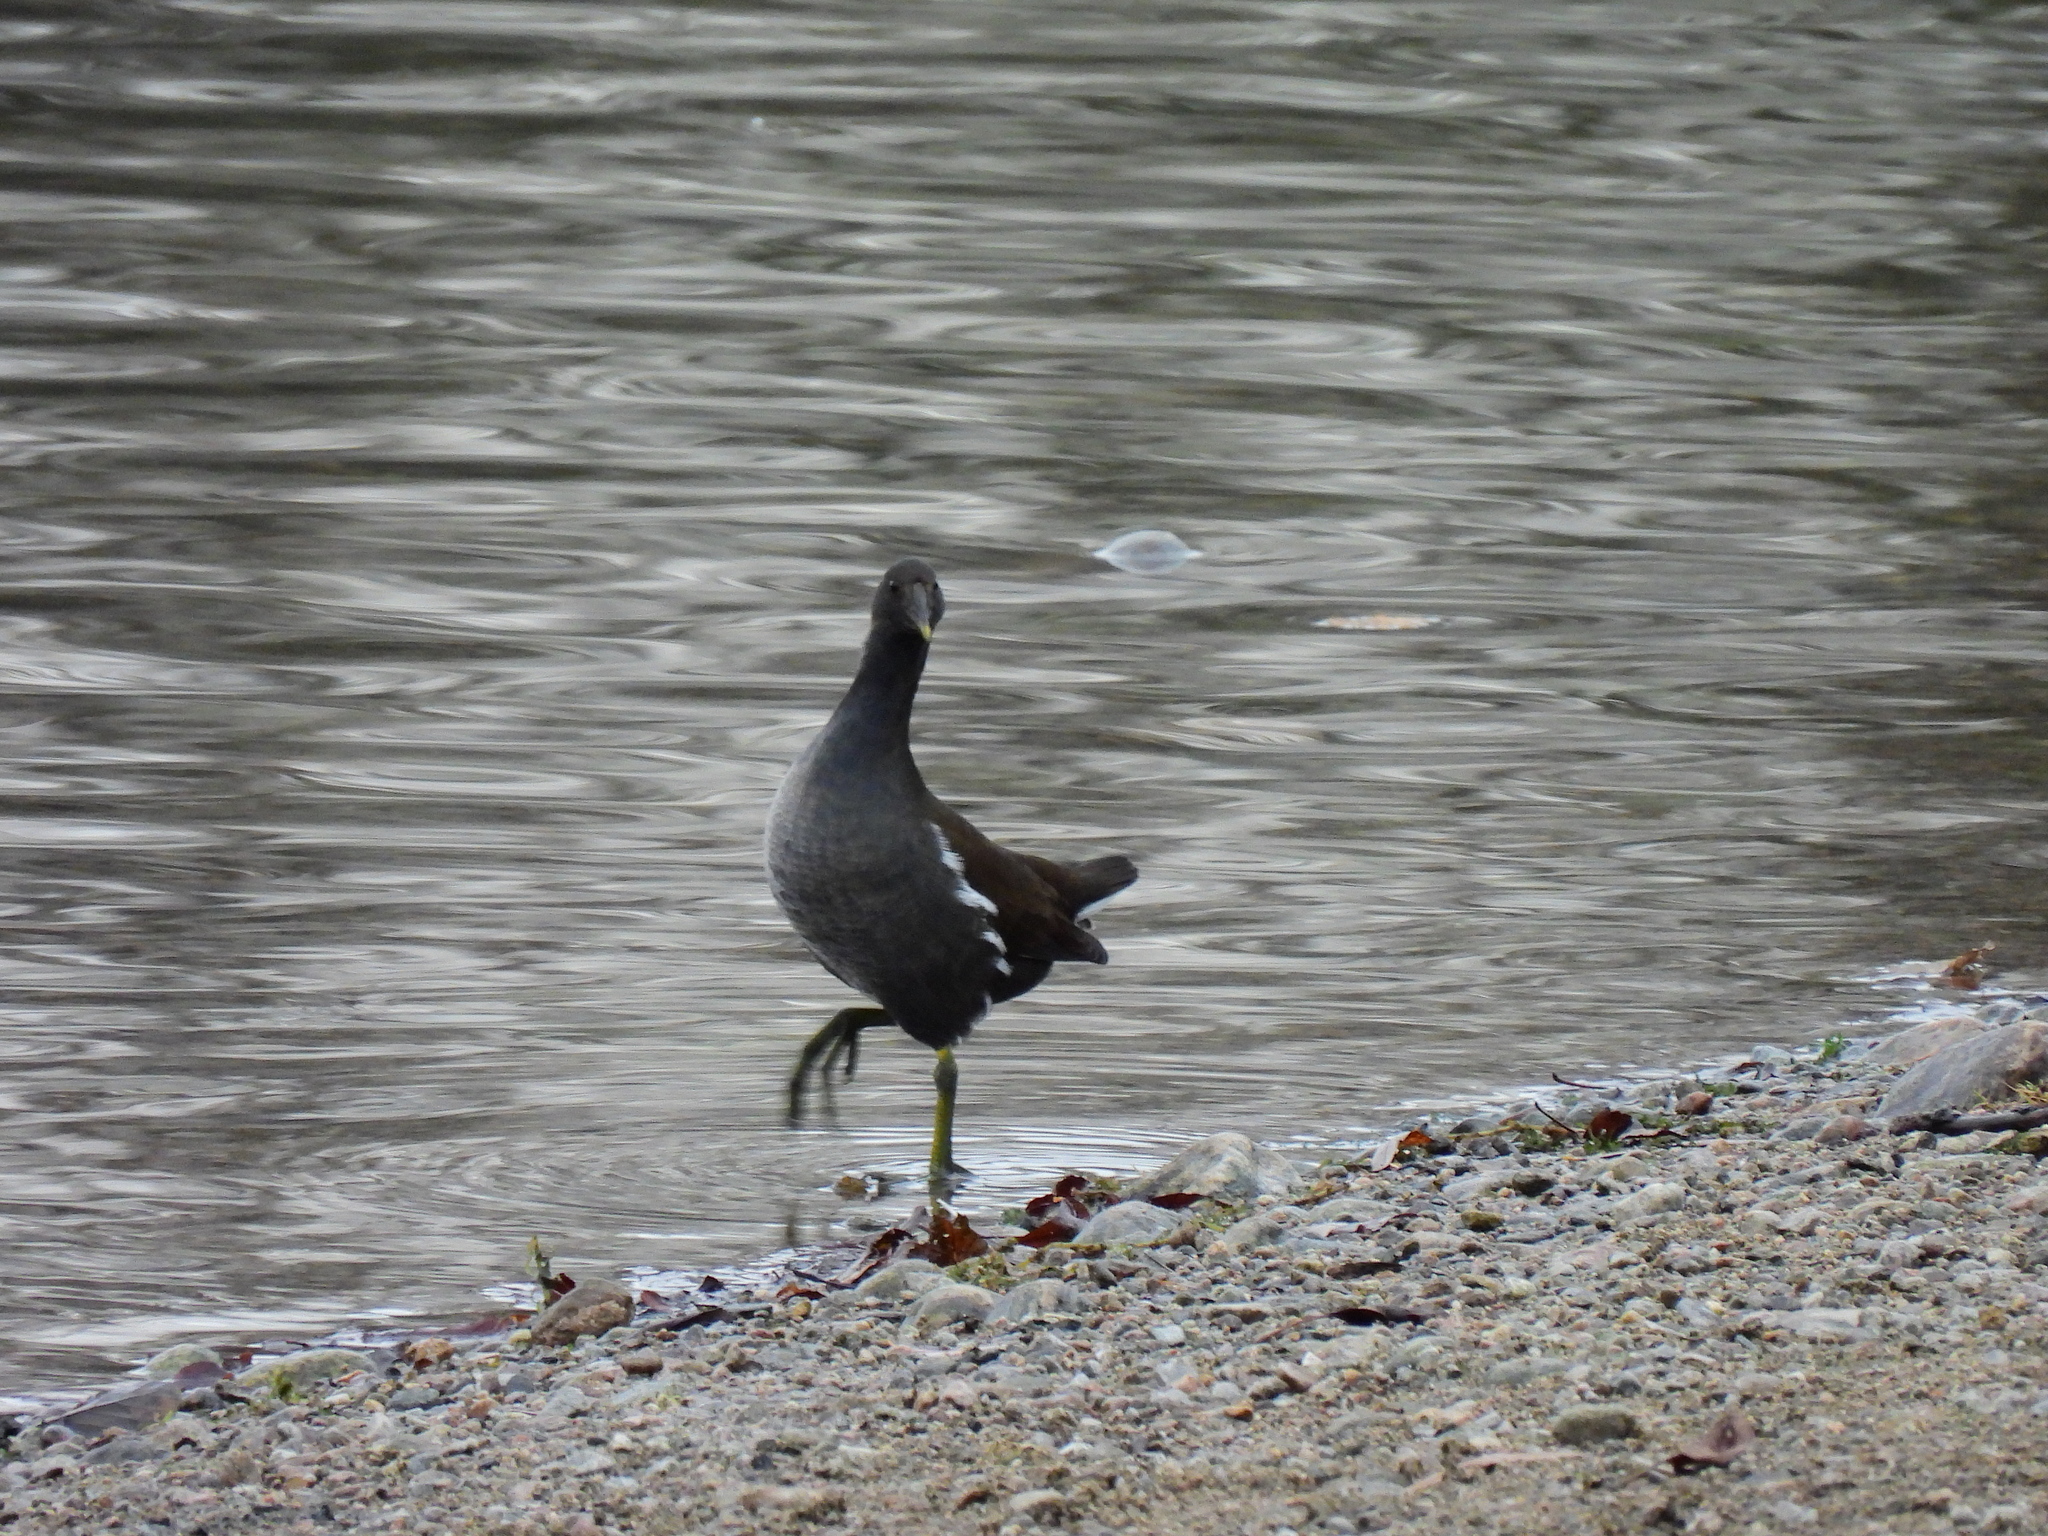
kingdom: Animalia
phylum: Chordata
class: Aves
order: Gruiformes
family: Rallidae
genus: Gallinula
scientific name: Gallinula chloropus
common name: Common moorhen
